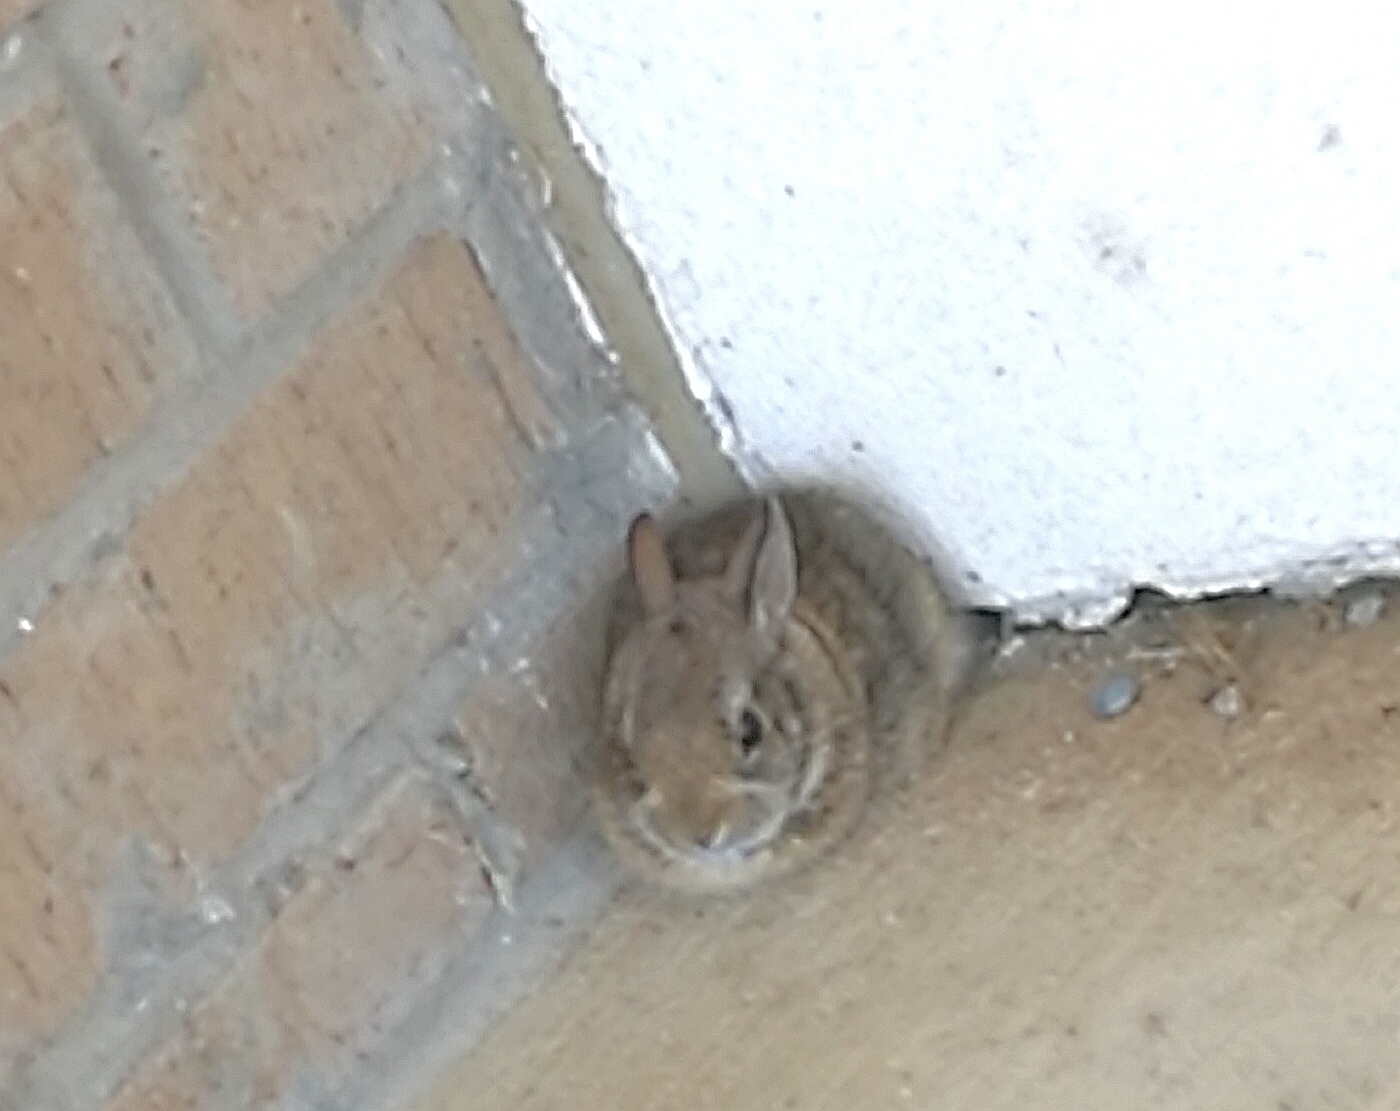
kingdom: Animalia
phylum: Chordata
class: Mammalia
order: Lagomorpha
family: Leporidae
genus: Sylvilagus
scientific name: Sylvilagus floridanus
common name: Eastern cottontail
